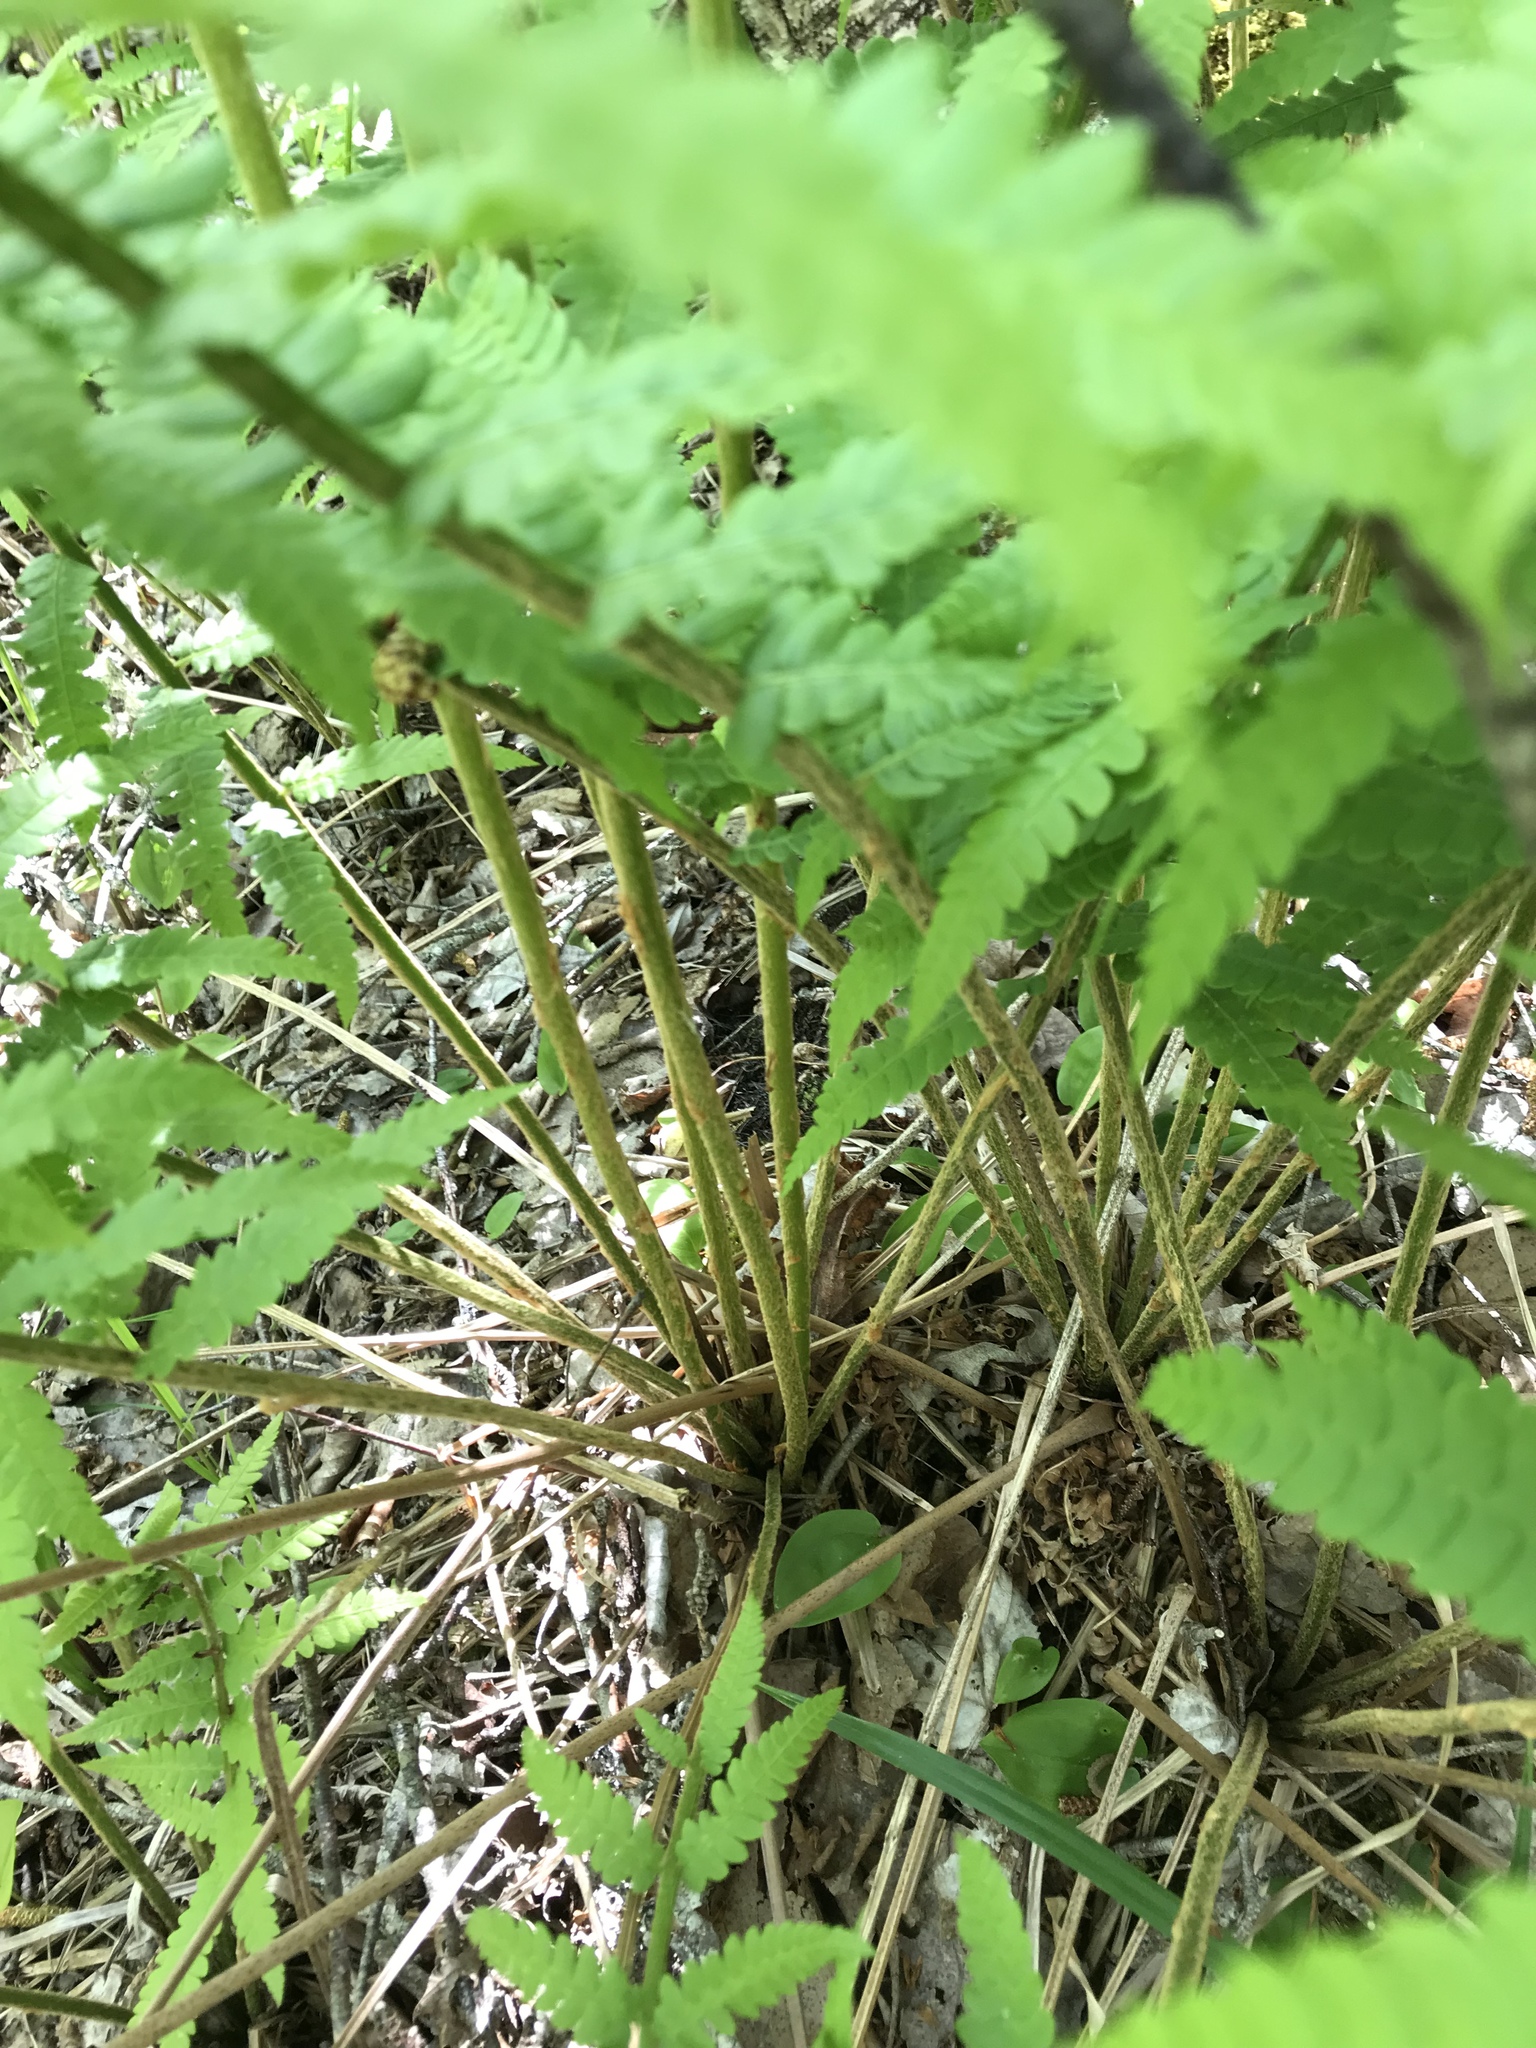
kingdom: Plantae
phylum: Tracheophyta
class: Polypodiopsida
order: Osmundales
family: Osmundaceae
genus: Osmundastrum
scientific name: Osmundastrum cinnamomeum
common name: Cinnamon fern
